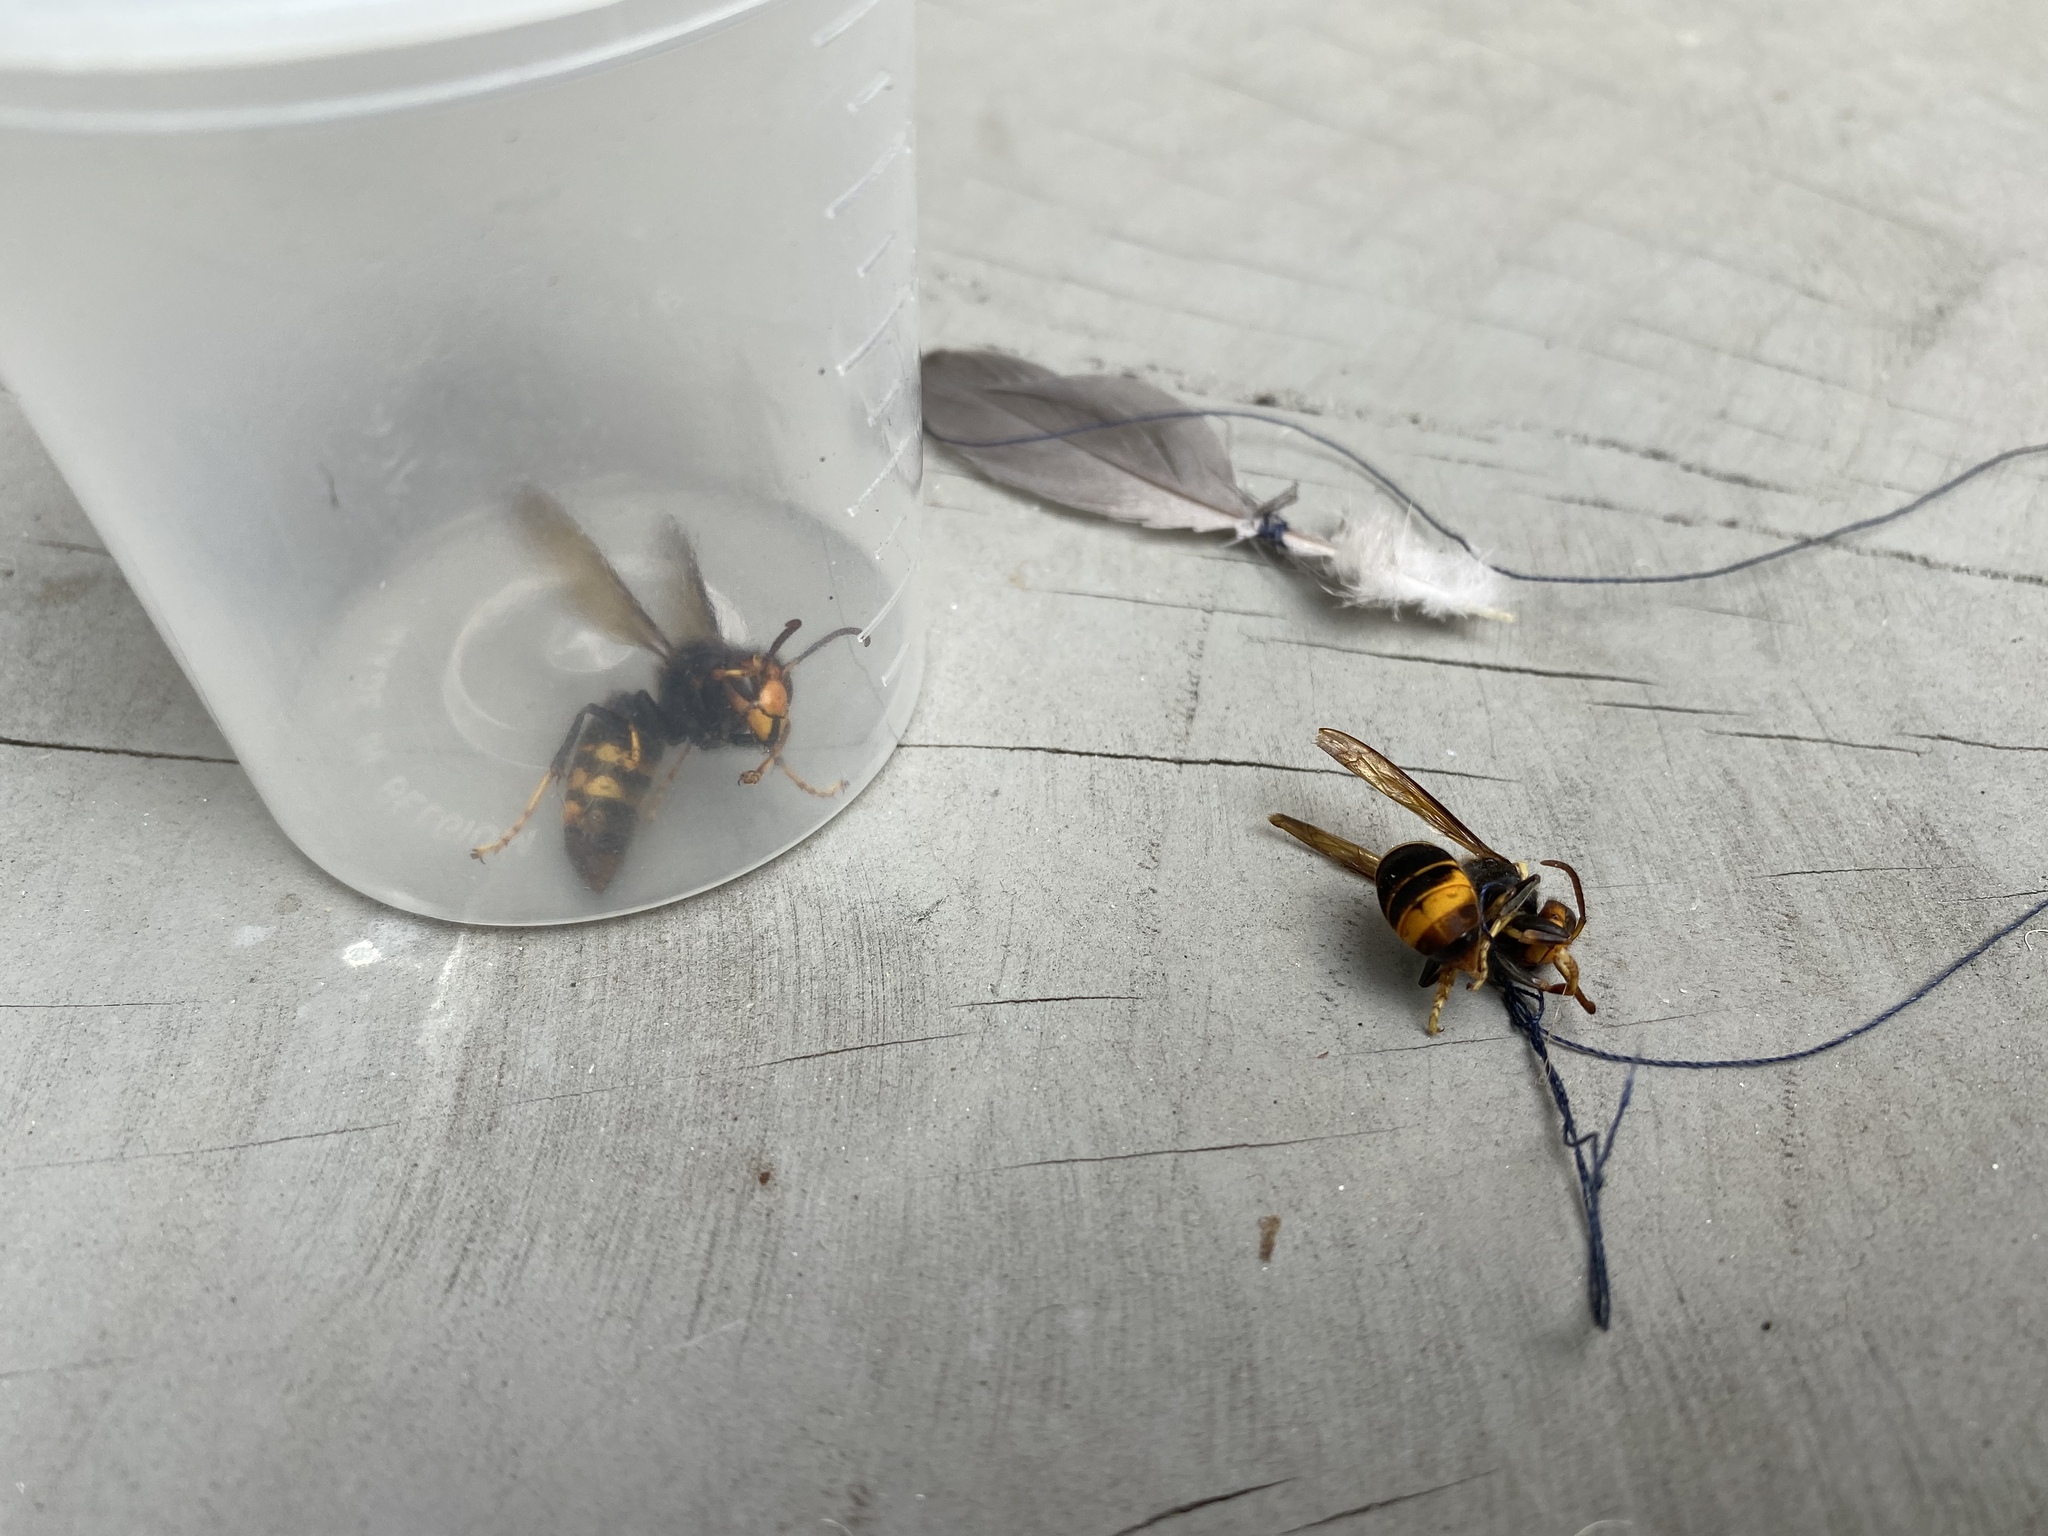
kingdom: Animalia
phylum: Arthropoda
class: Insecta
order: Hymenoptera
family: Vespidae
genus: Vespa
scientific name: Vespa velutina
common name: Asian hornet
